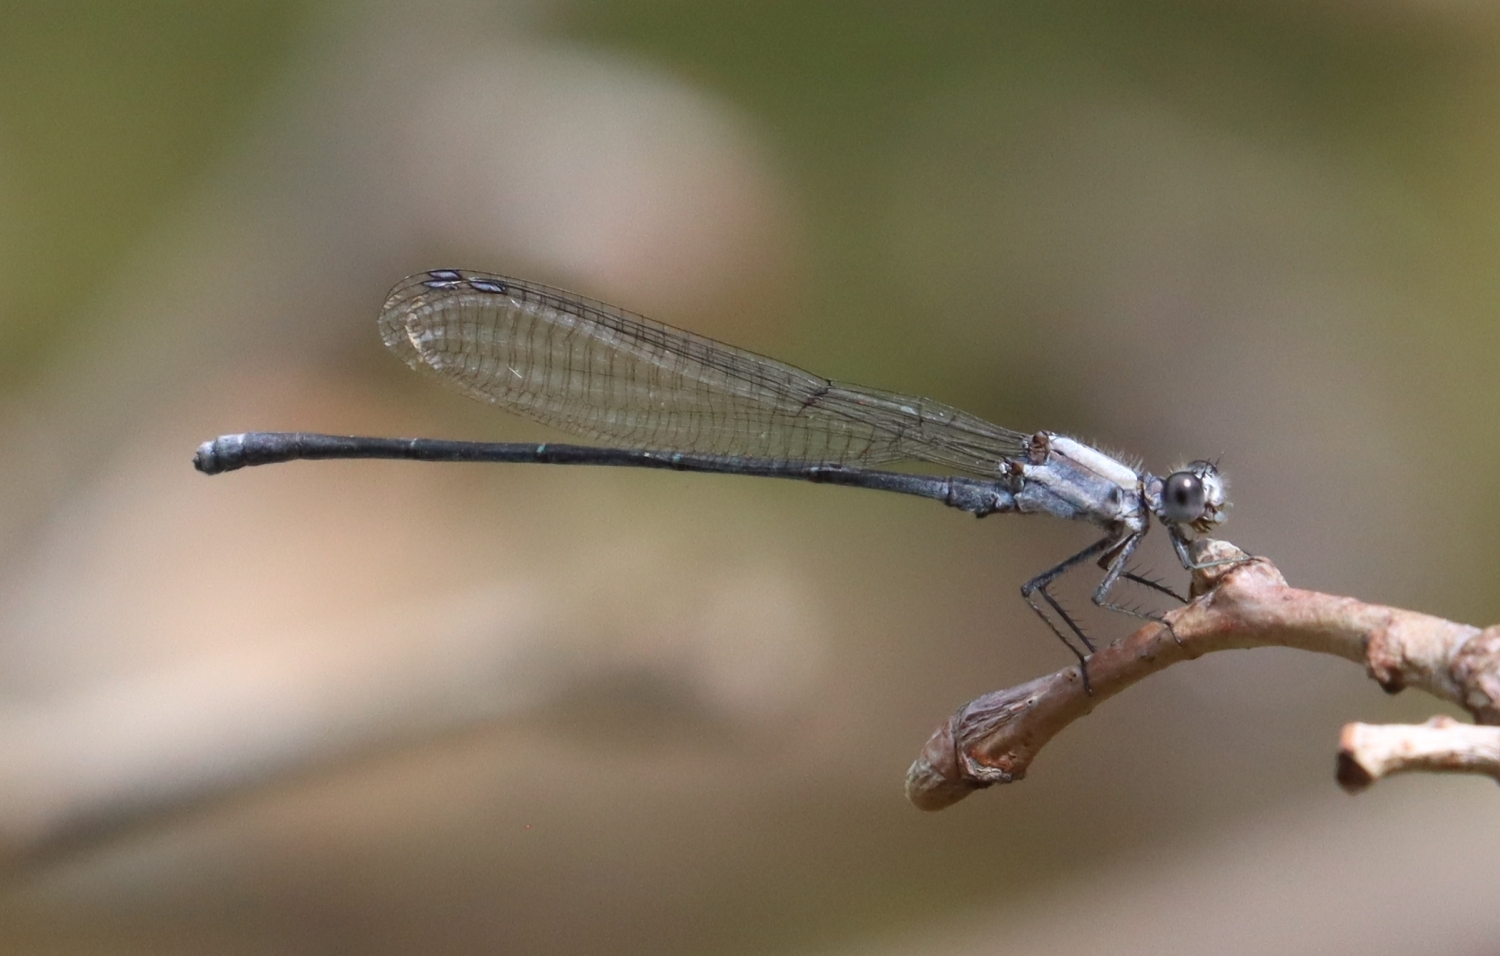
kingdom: Animalia
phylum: Arthropoda
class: Insecta
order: Odonata
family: Coenagrionidae
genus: Argia
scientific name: Argia moesta
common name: Powdered dancer
